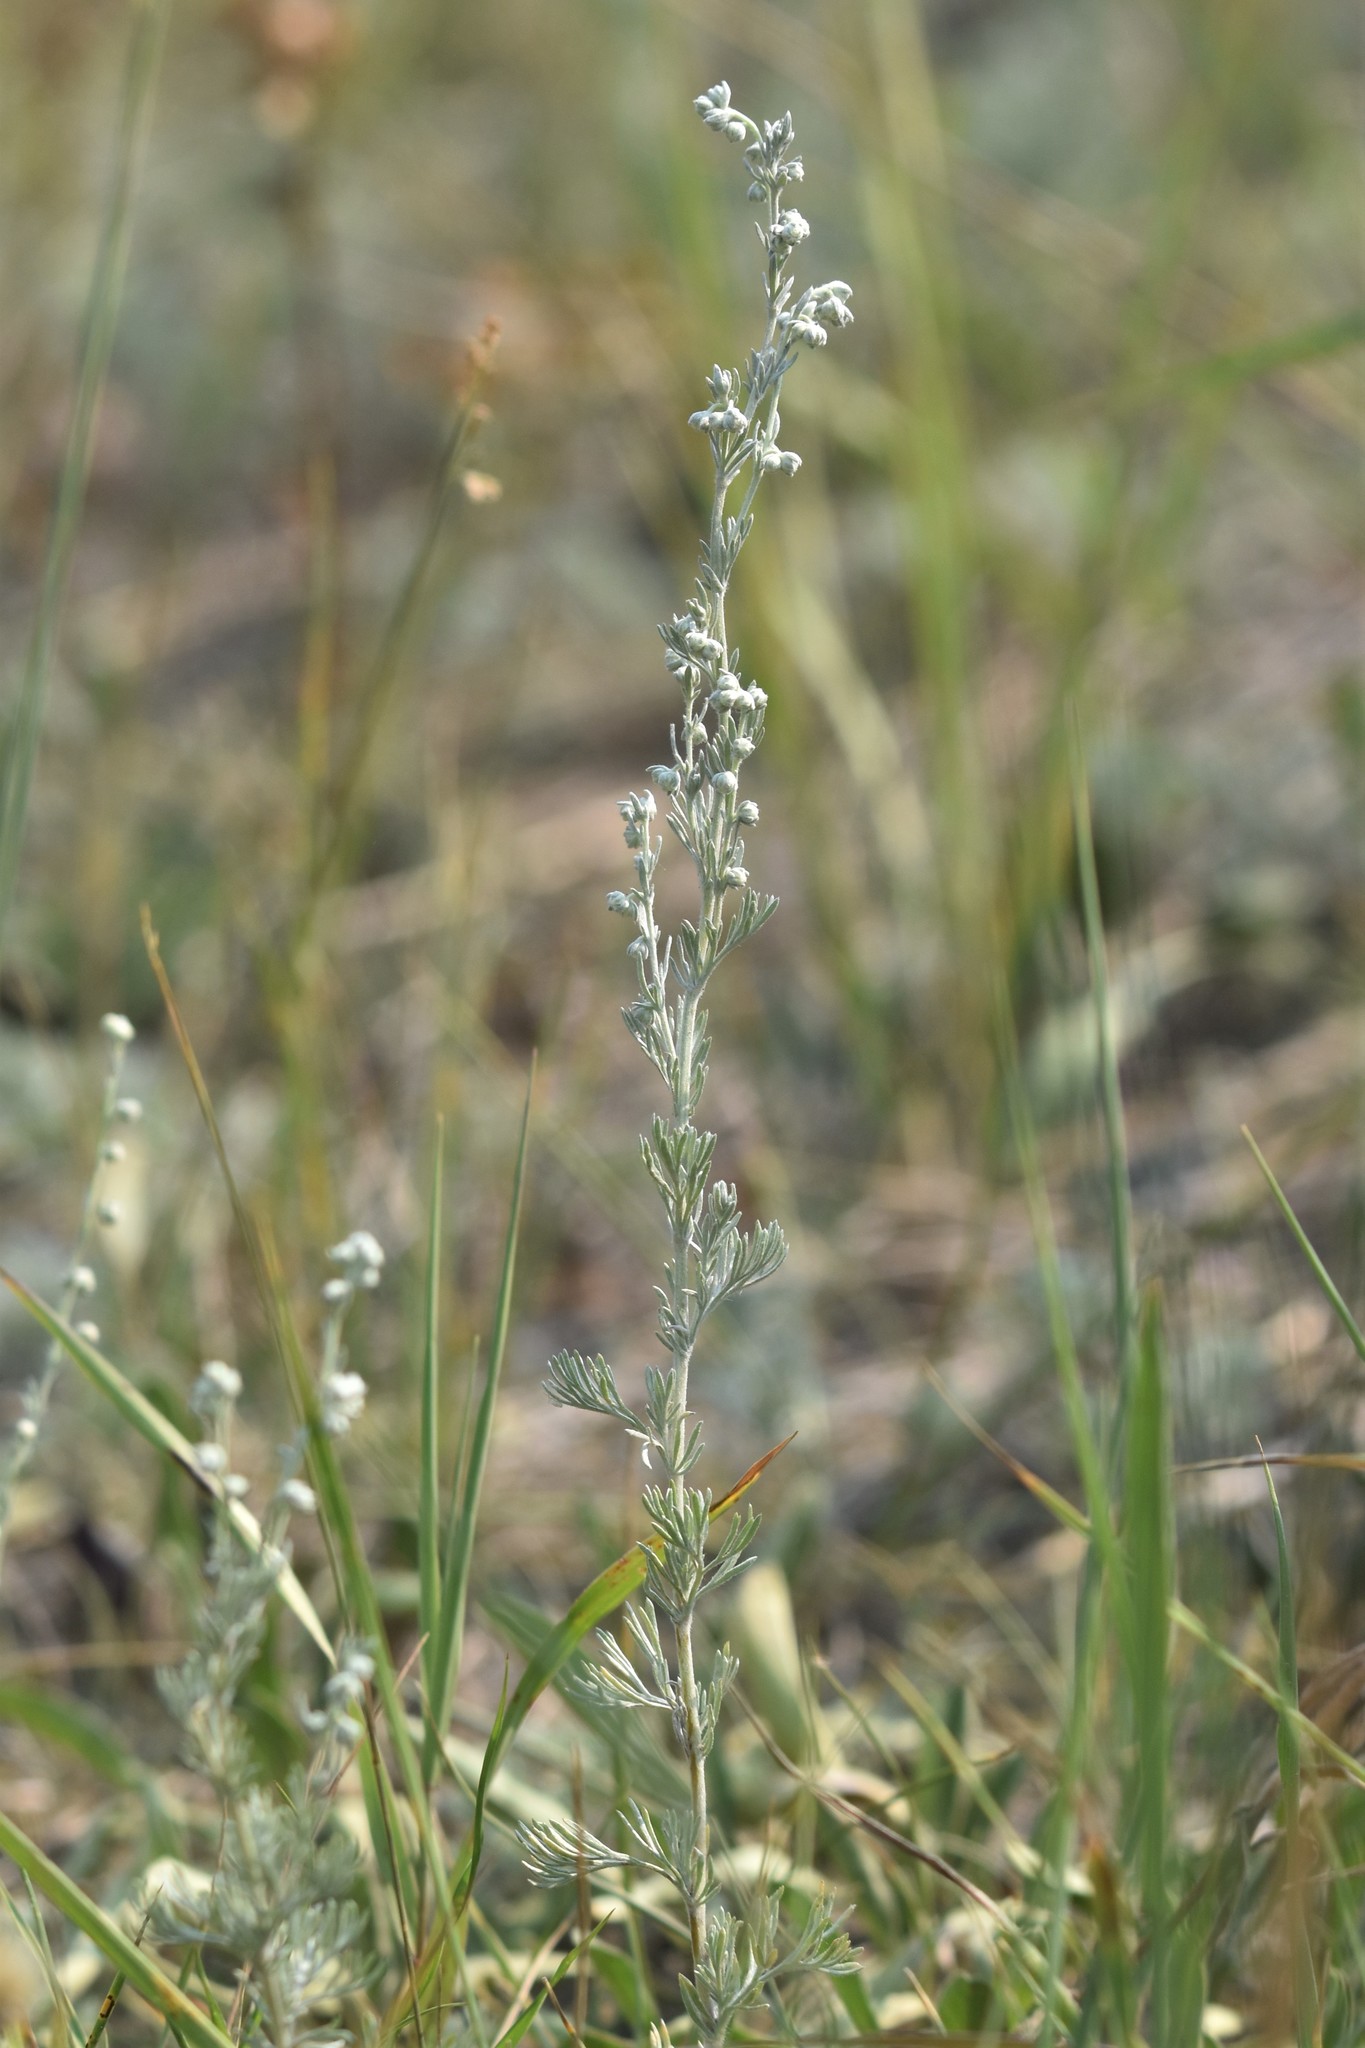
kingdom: Plantae
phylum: Tracheophyta
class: Magnoliopsida
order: Asterales
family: Asteraceae
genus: Artemisia
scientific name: Artemisia frigida
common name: Prairie sagewort
